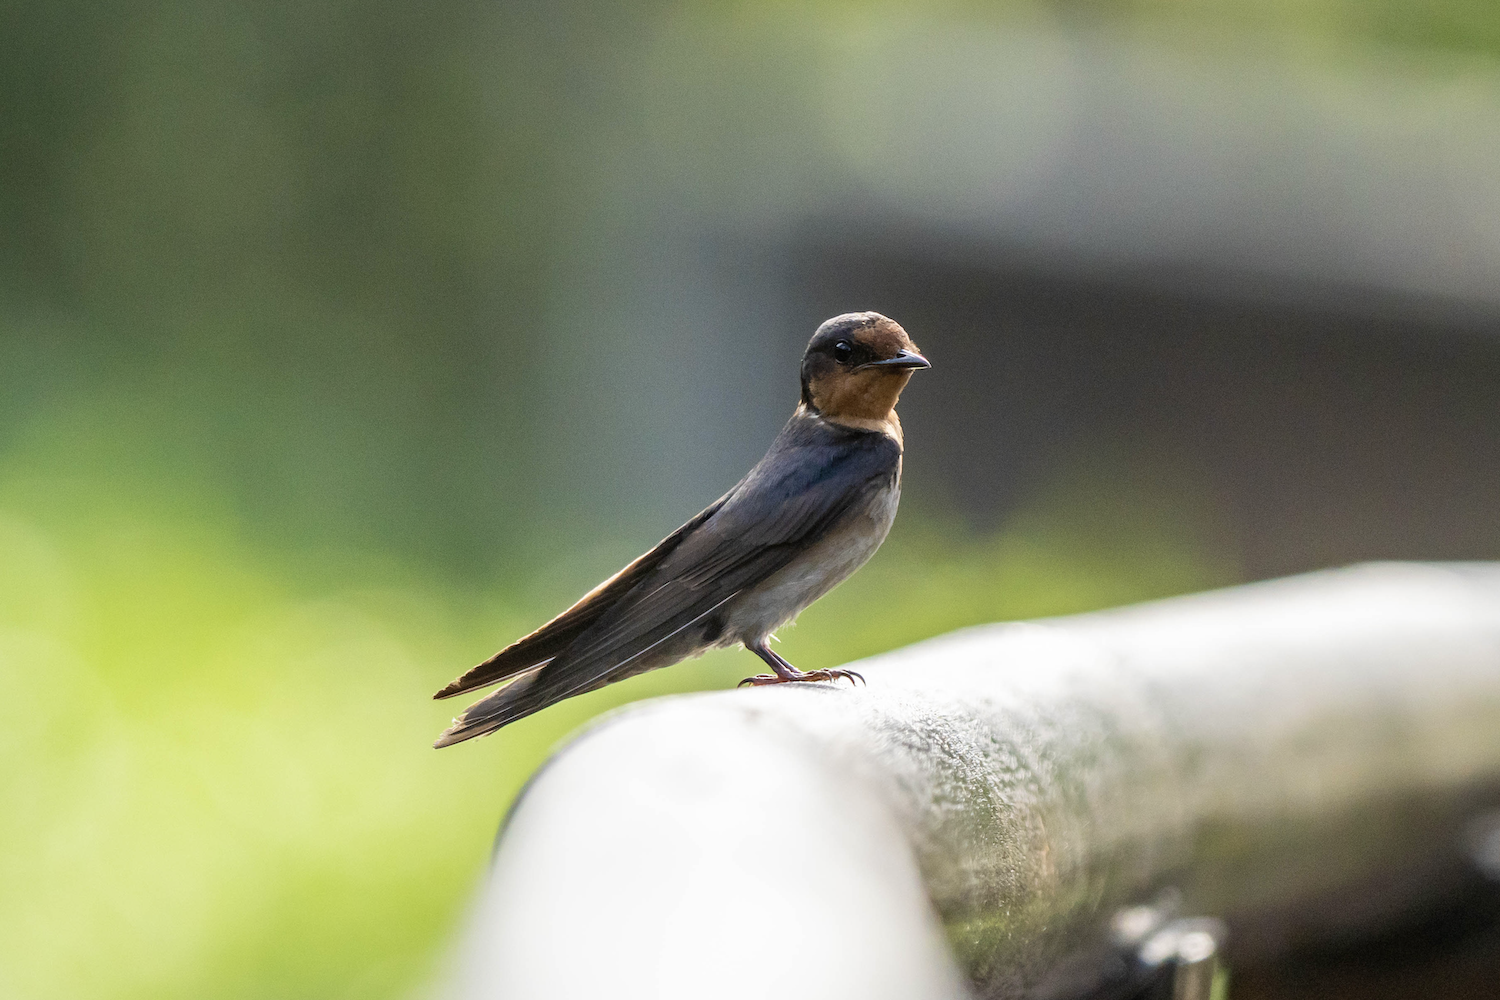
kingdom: Animalia
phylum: Chordata
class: Aves
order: Passeriformes
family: Hirundinidae
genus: Hirundo
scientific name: Hirundo tahitica
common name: Pacific swallow
